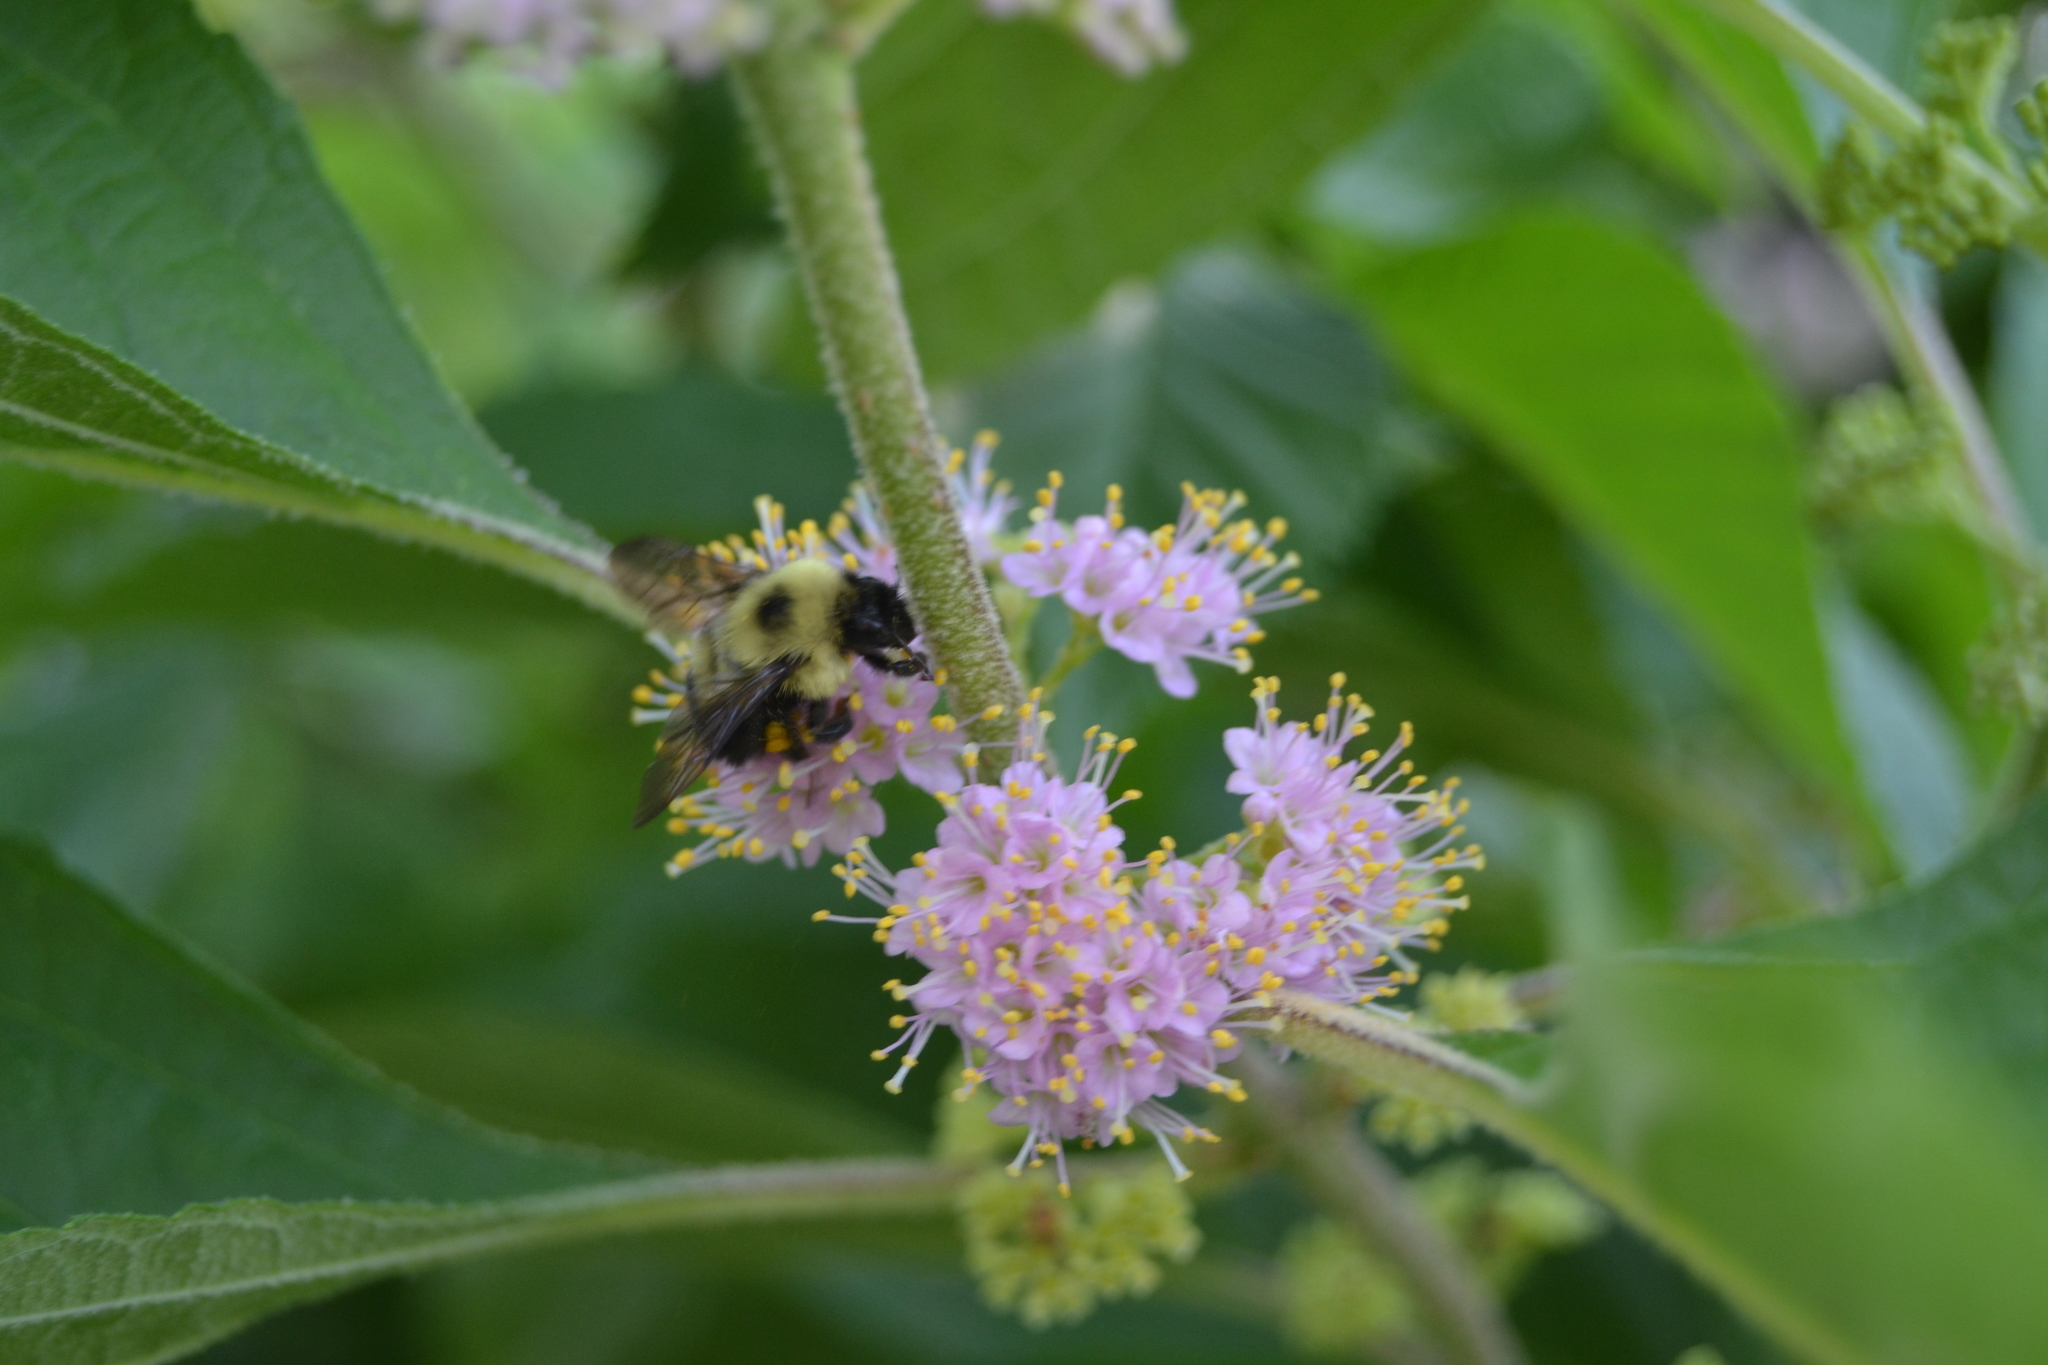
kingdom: Animalia
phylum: Arthropoda
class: Insecta
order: Hymenoptera
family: Apidae
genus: Bombus
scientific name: Bombus bimaculatus
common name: Two-spotted bumble bee
